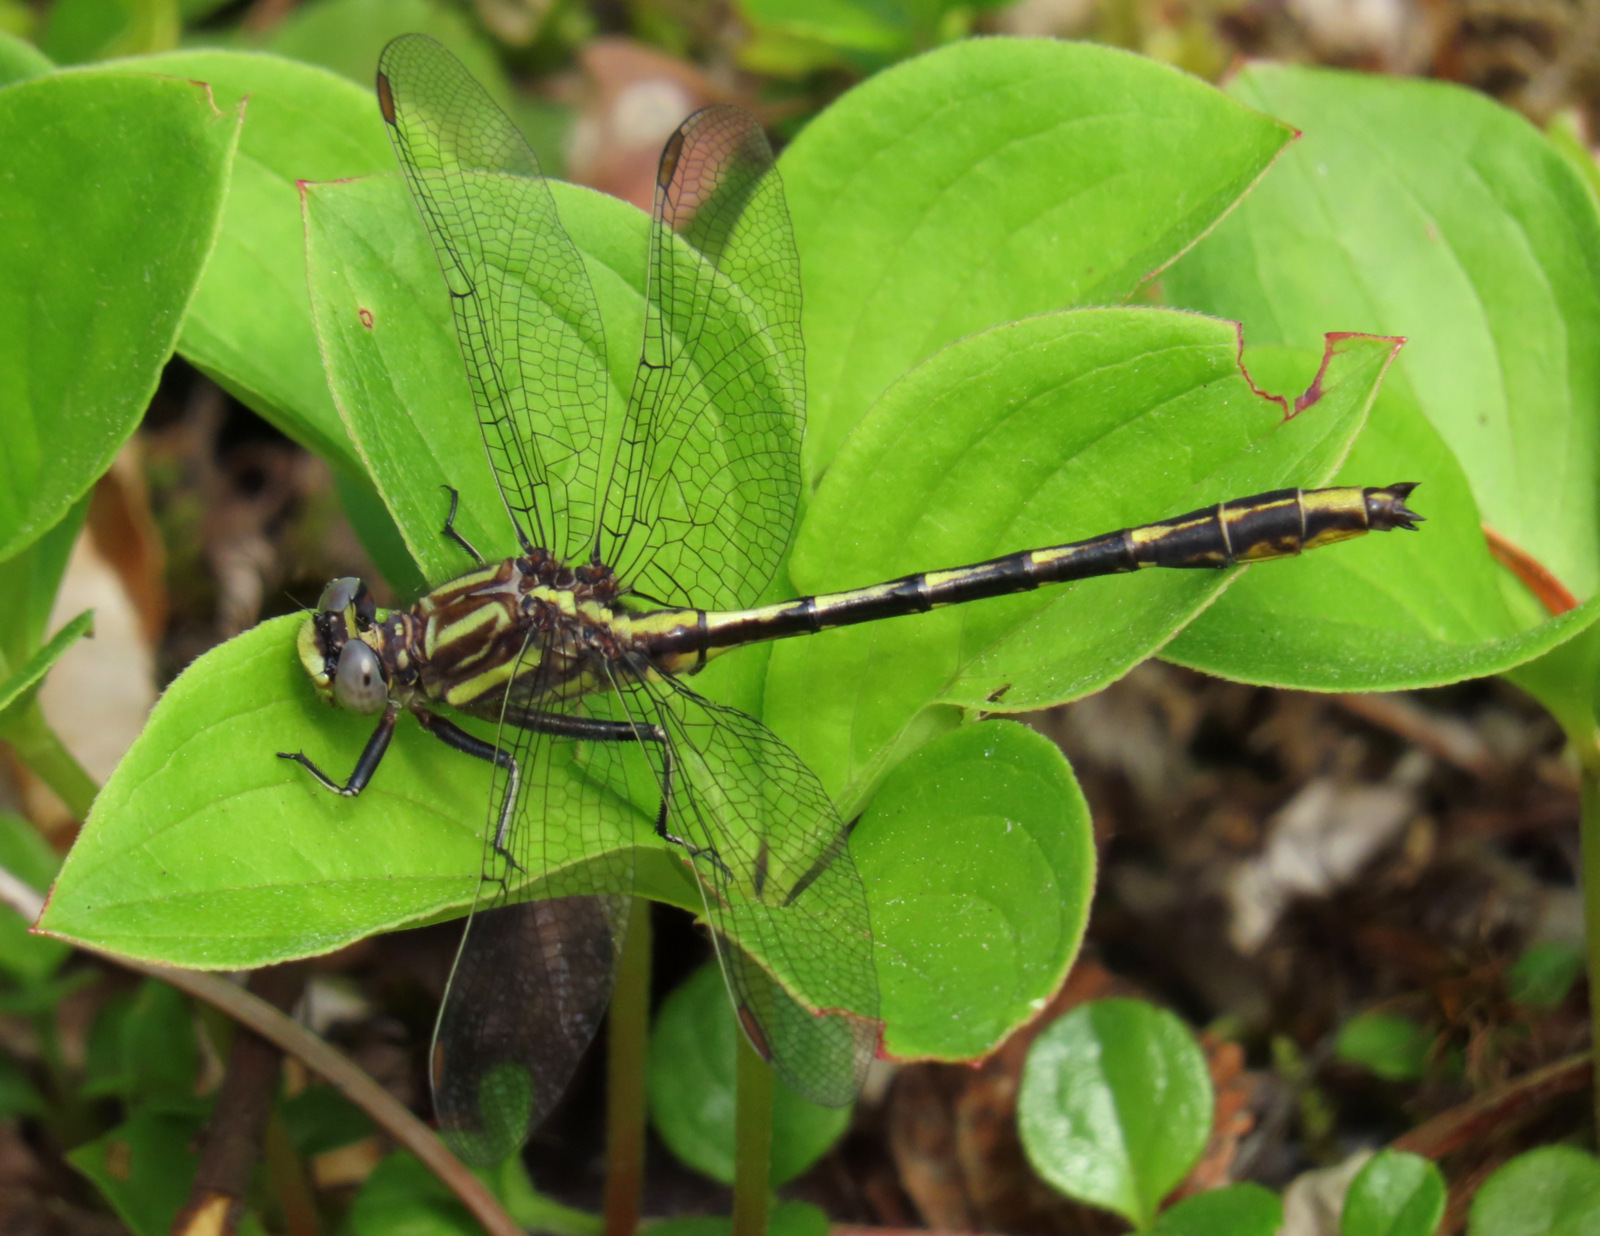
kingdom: Animalia
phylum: Arthropoda
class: Insecta
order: Odonata
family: Gomphidae
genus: Phanogomphus
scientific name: Phanogomphus exilis
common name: Lancet clubtail
